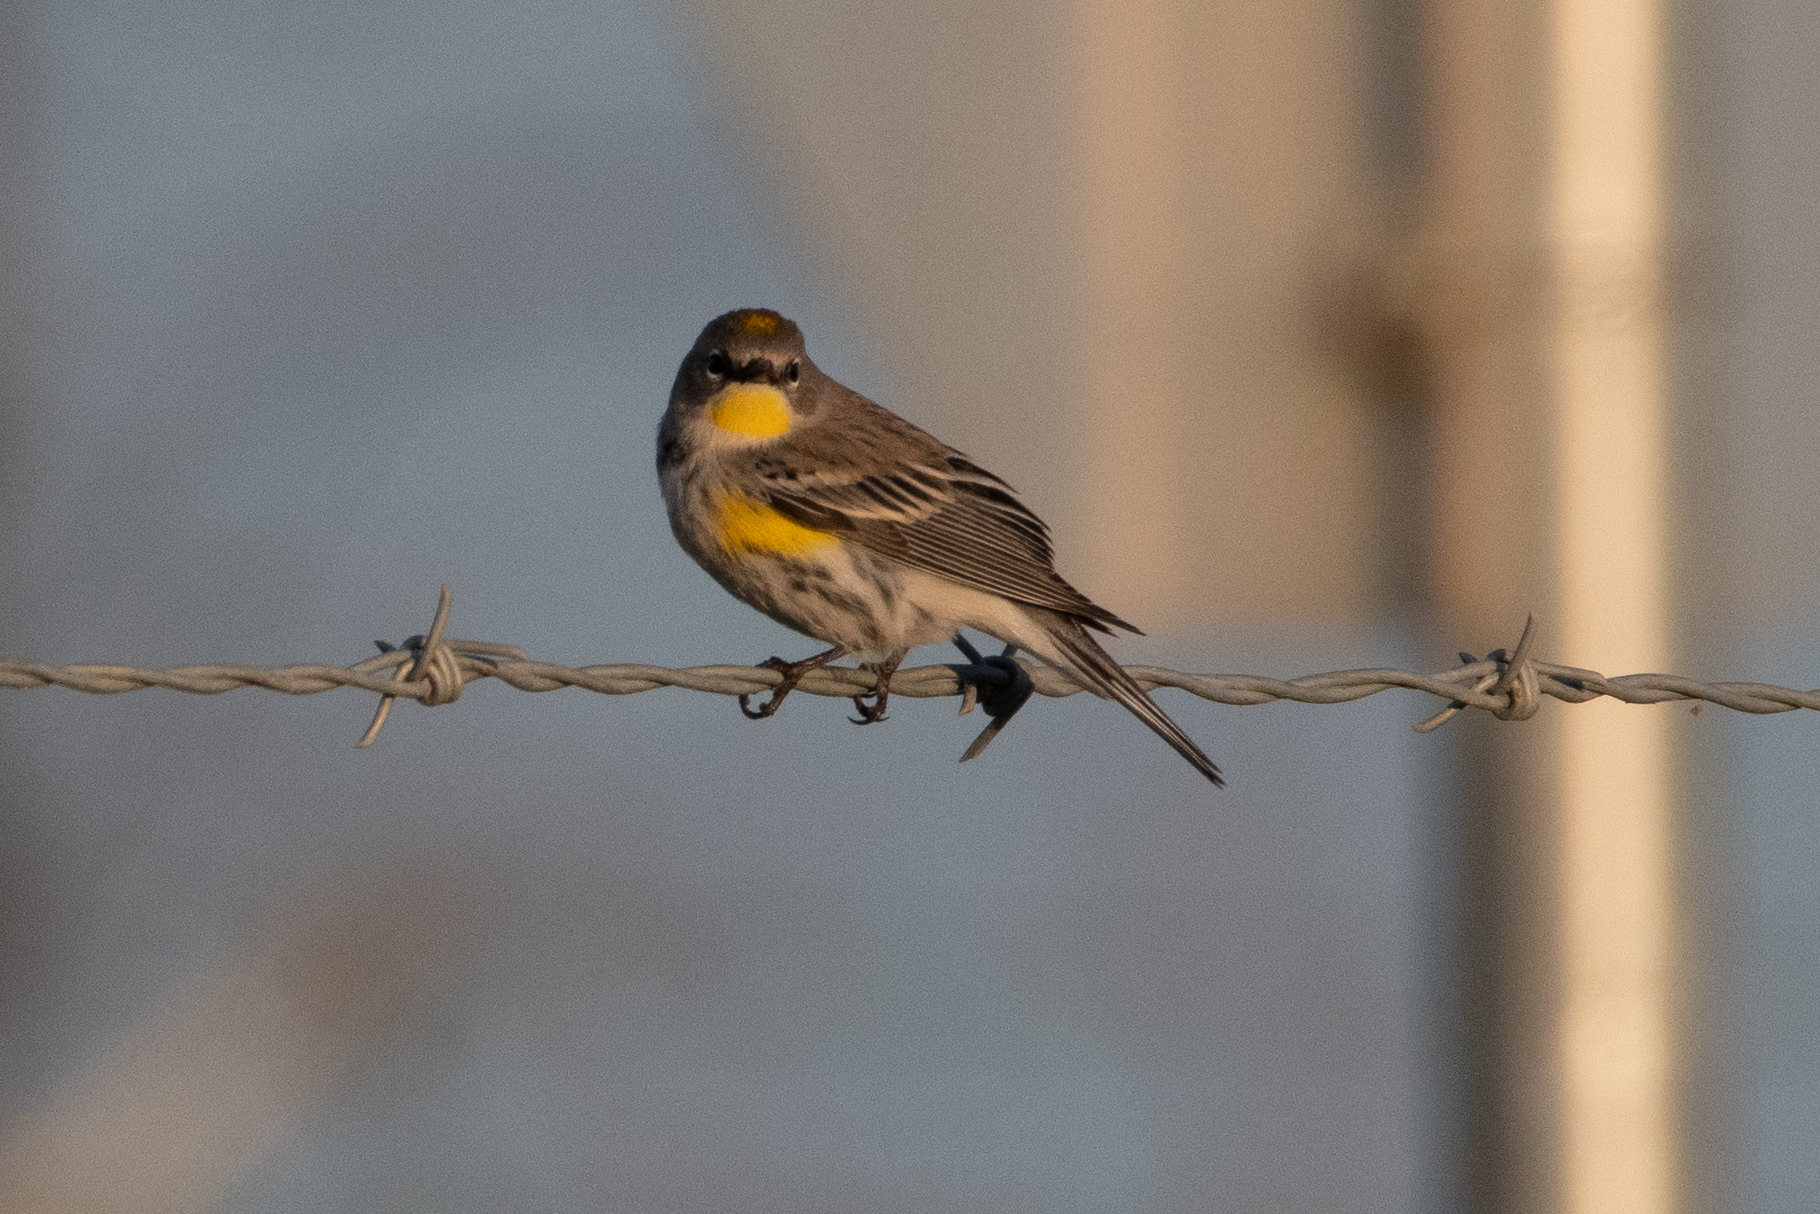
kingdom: Animalia
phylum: Chordata
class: Aves
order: Passeriformes
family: Parulidae
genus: Setophaga
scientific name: Setophaga coronata
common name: Myrtle warbler
